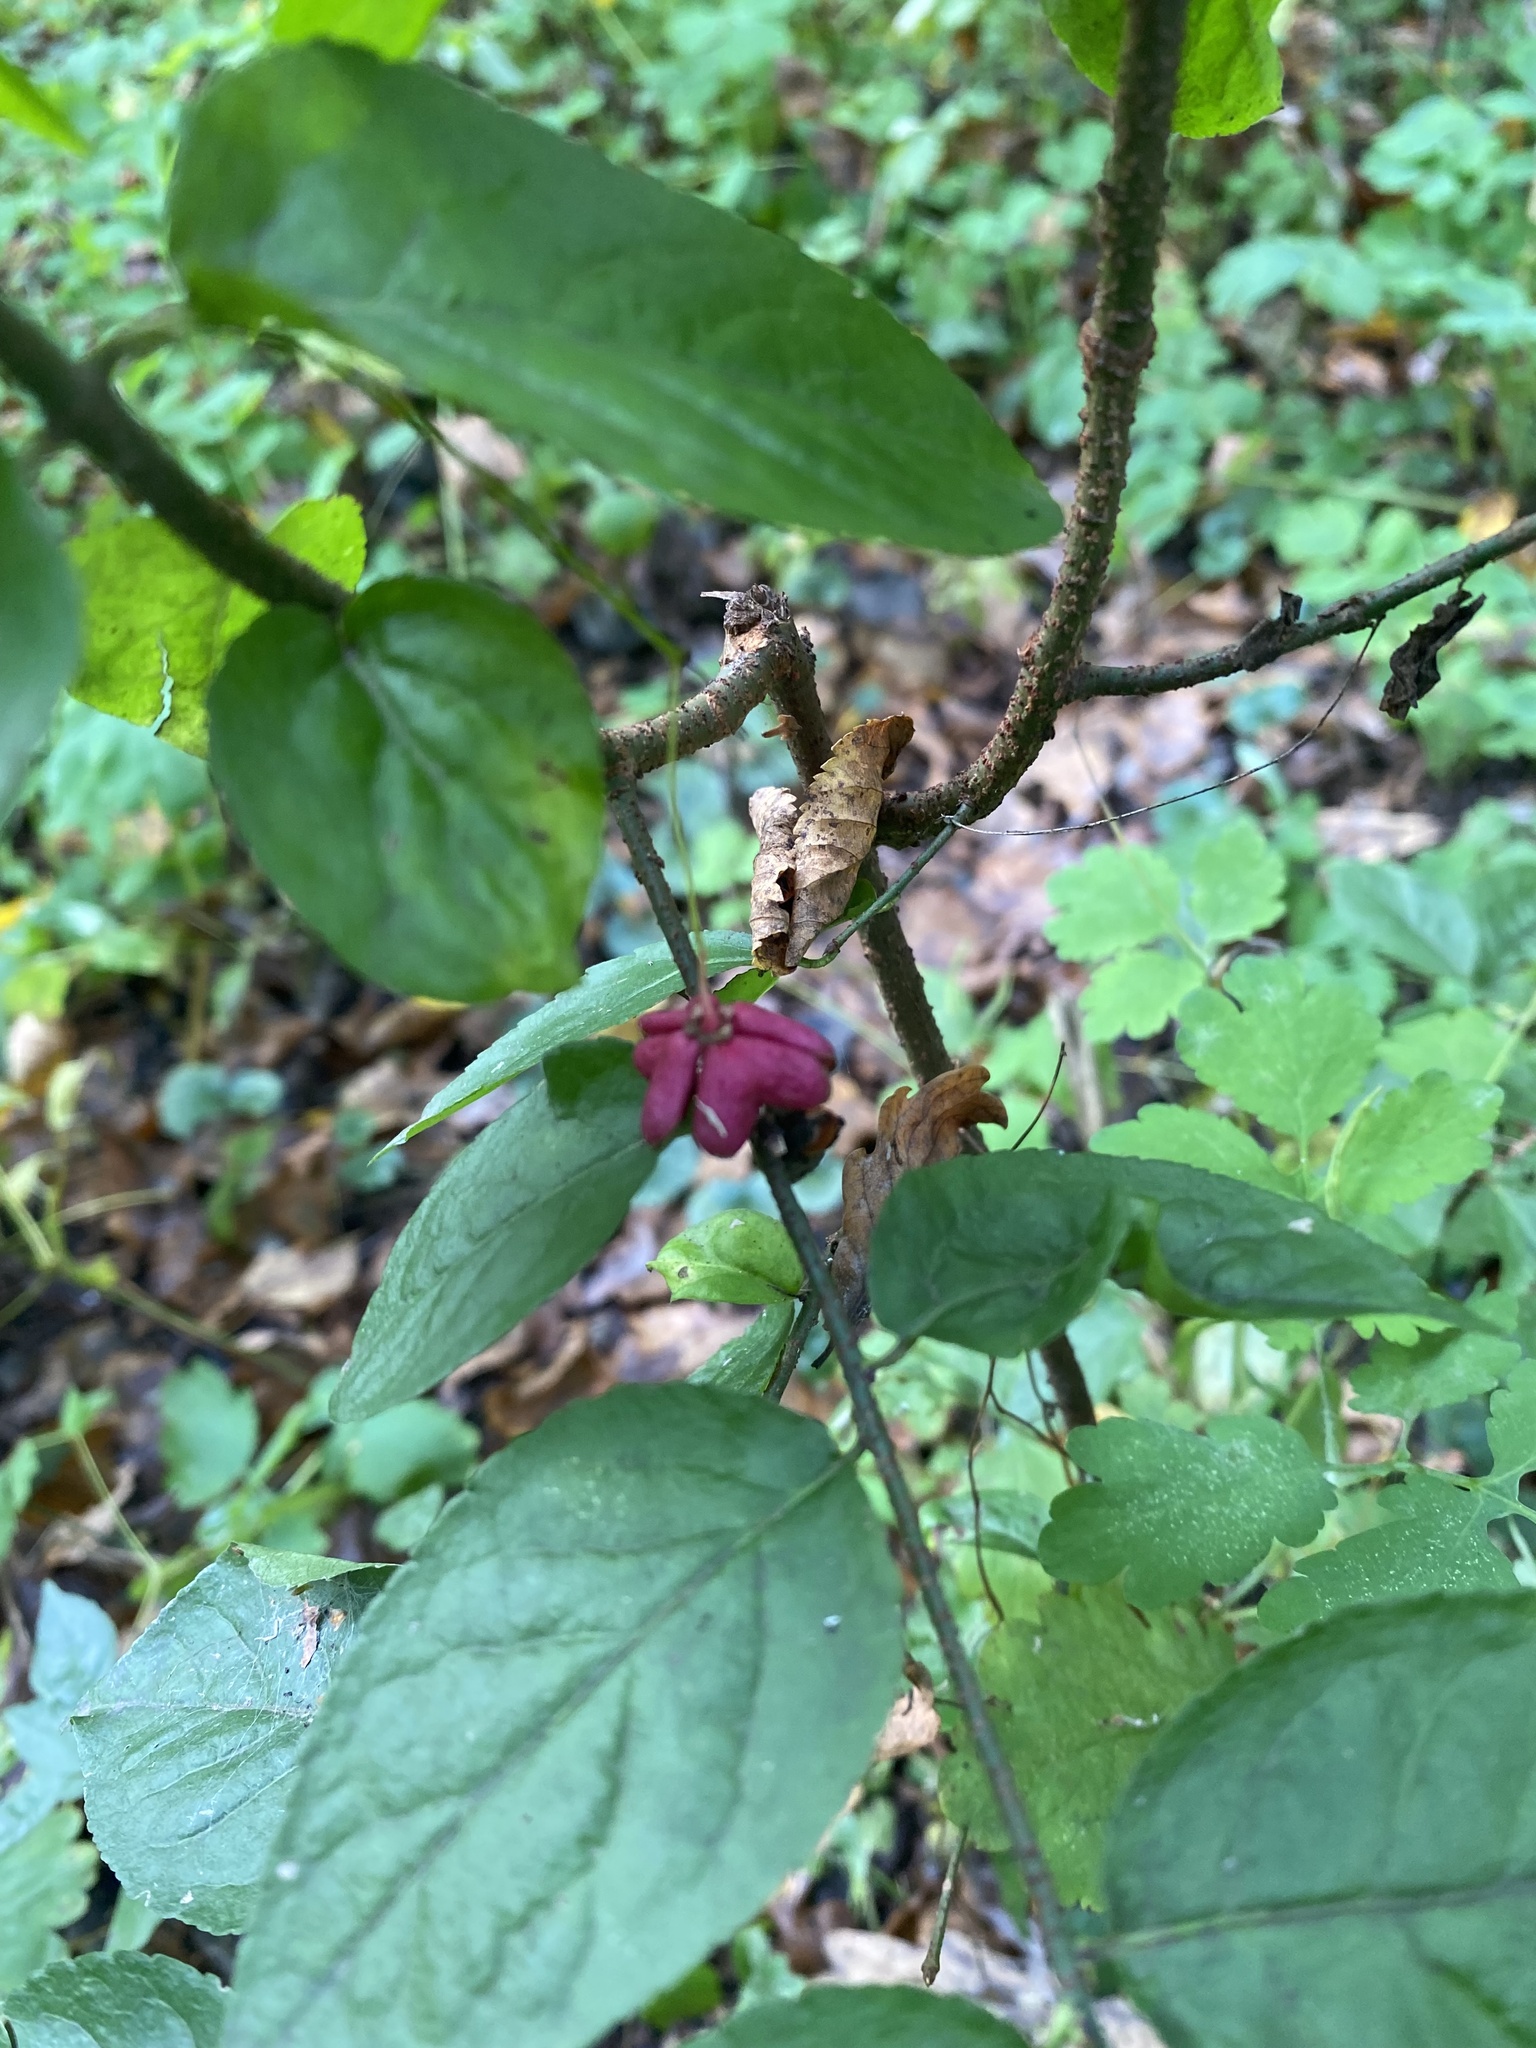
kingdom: Plantae
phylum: Tracheophyta
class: Magnoliopsida
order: Celastrales
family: Celastraceae
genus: Euonymus
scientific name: Euonymus verrucosus
